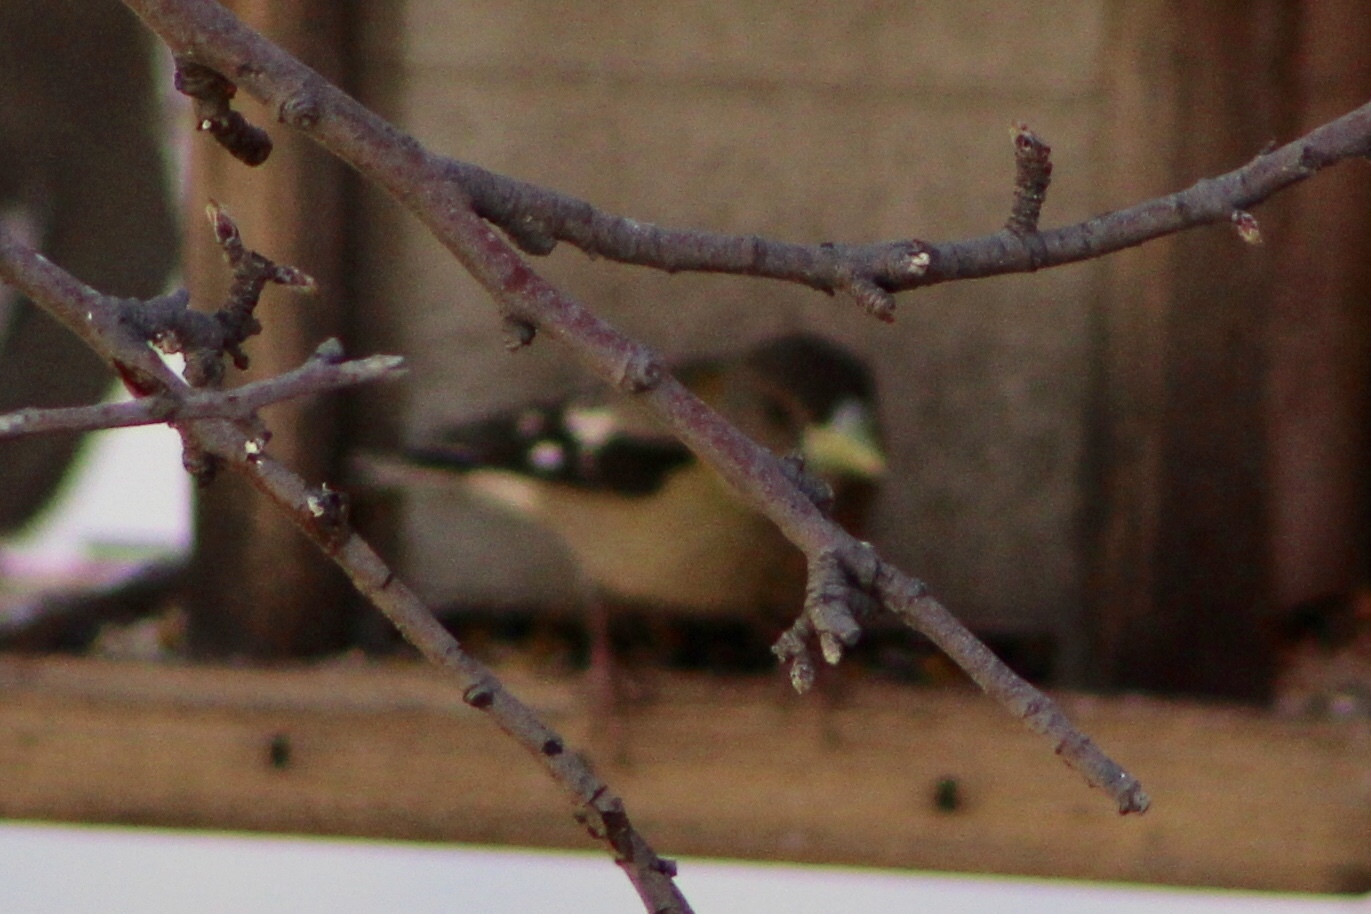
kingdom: Animalia
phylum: Chordata
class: Aves
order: Passeriformes
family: Fringillidae
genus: Hesperiphona
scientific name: Hesperiphona vespertina
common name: Evening grosbeak
